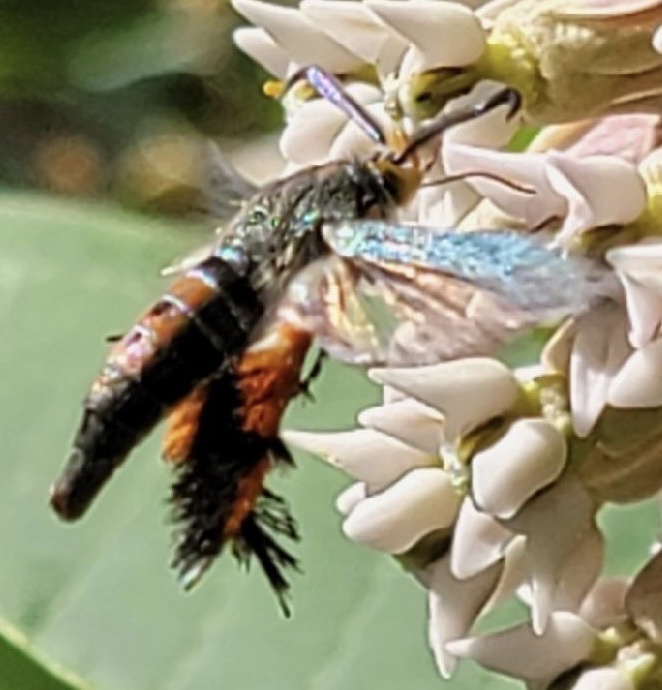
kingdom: Animalia
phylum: Arthropoda
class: Insecta
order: Lepidoptera
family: Sesiidae
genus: Eichlinia
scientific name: Eichlinia cucurbitae
